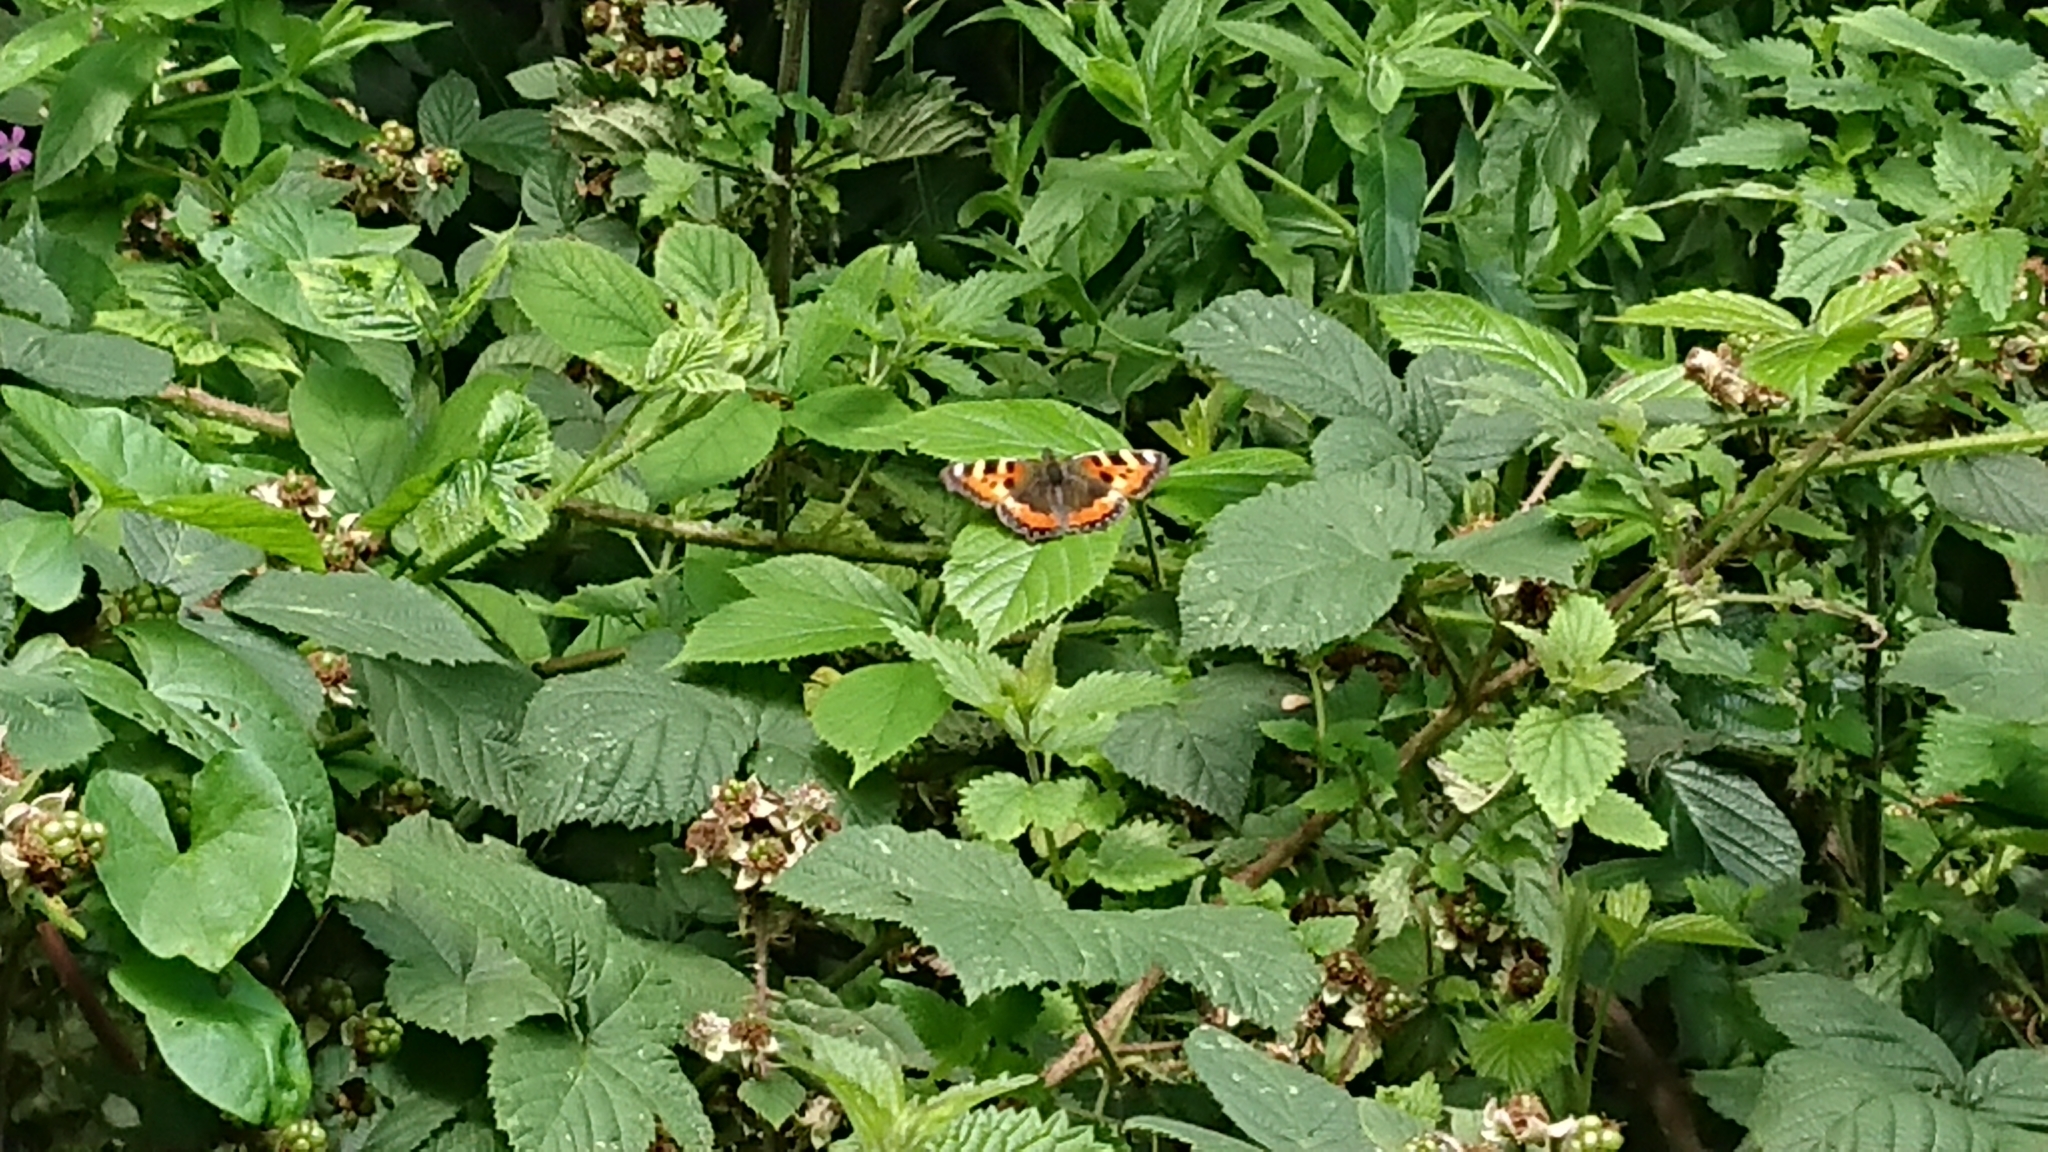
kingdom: Animalia
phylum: Arthropoda
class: Insecta
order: Lepidoptera
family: Nymphalidae
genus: Aglais
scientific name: Aglais urticae
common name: Small tortoiseshell
